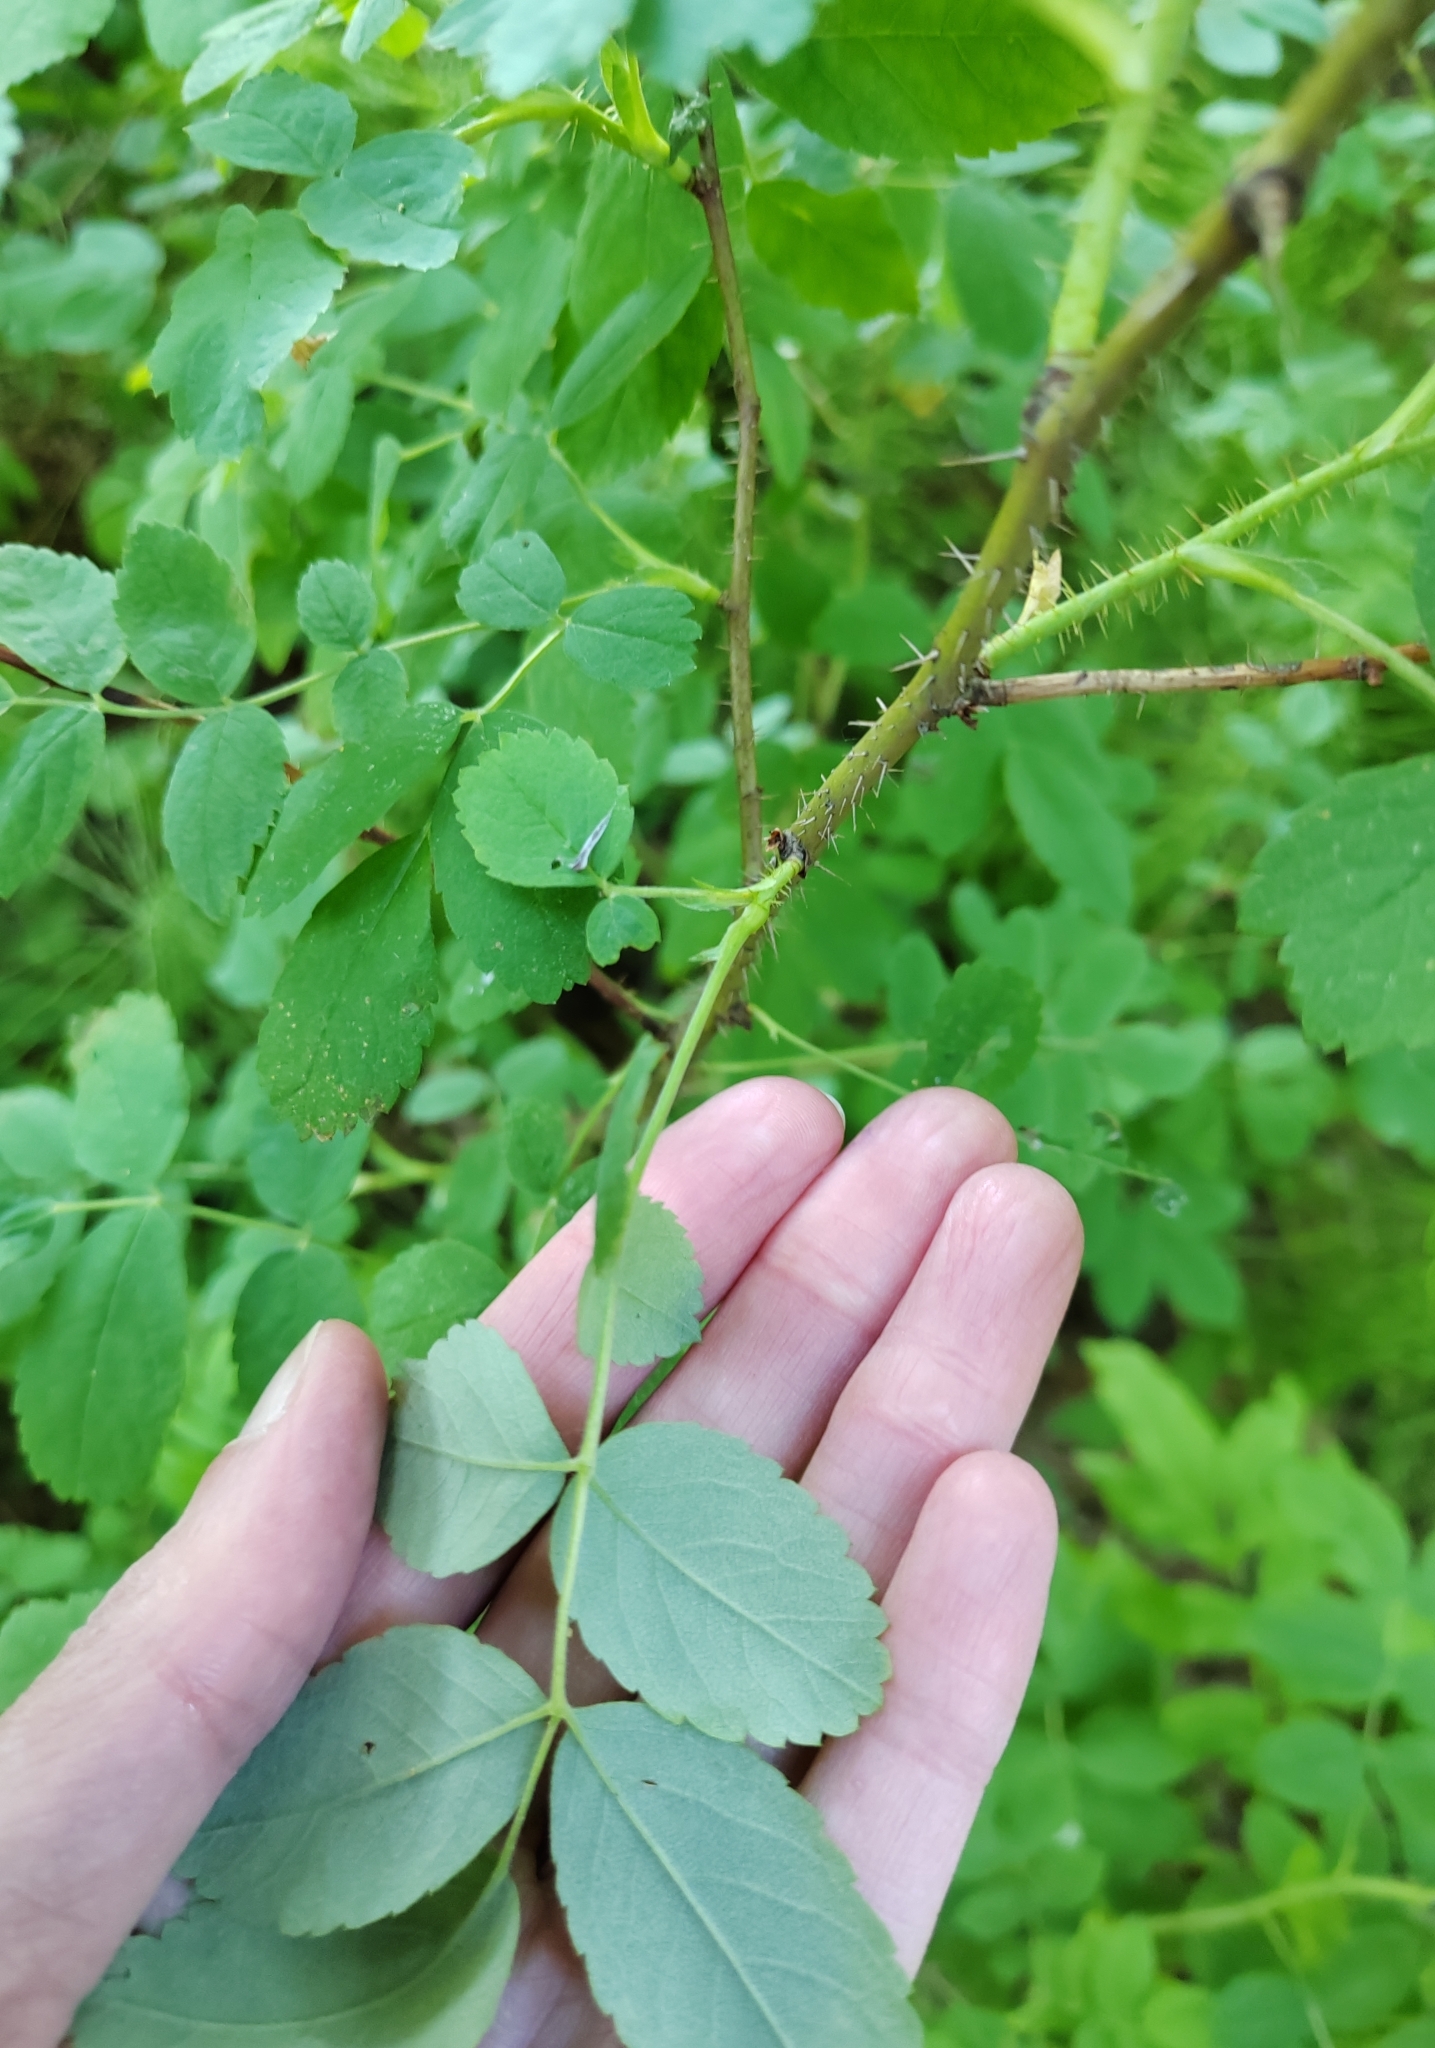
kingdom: Plantae
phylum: Tracheophyta
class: Magnoliopsida
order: Rosales
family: Rosaceae
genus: Rosa
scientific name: Rosa acicularis
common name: Prickly rose
